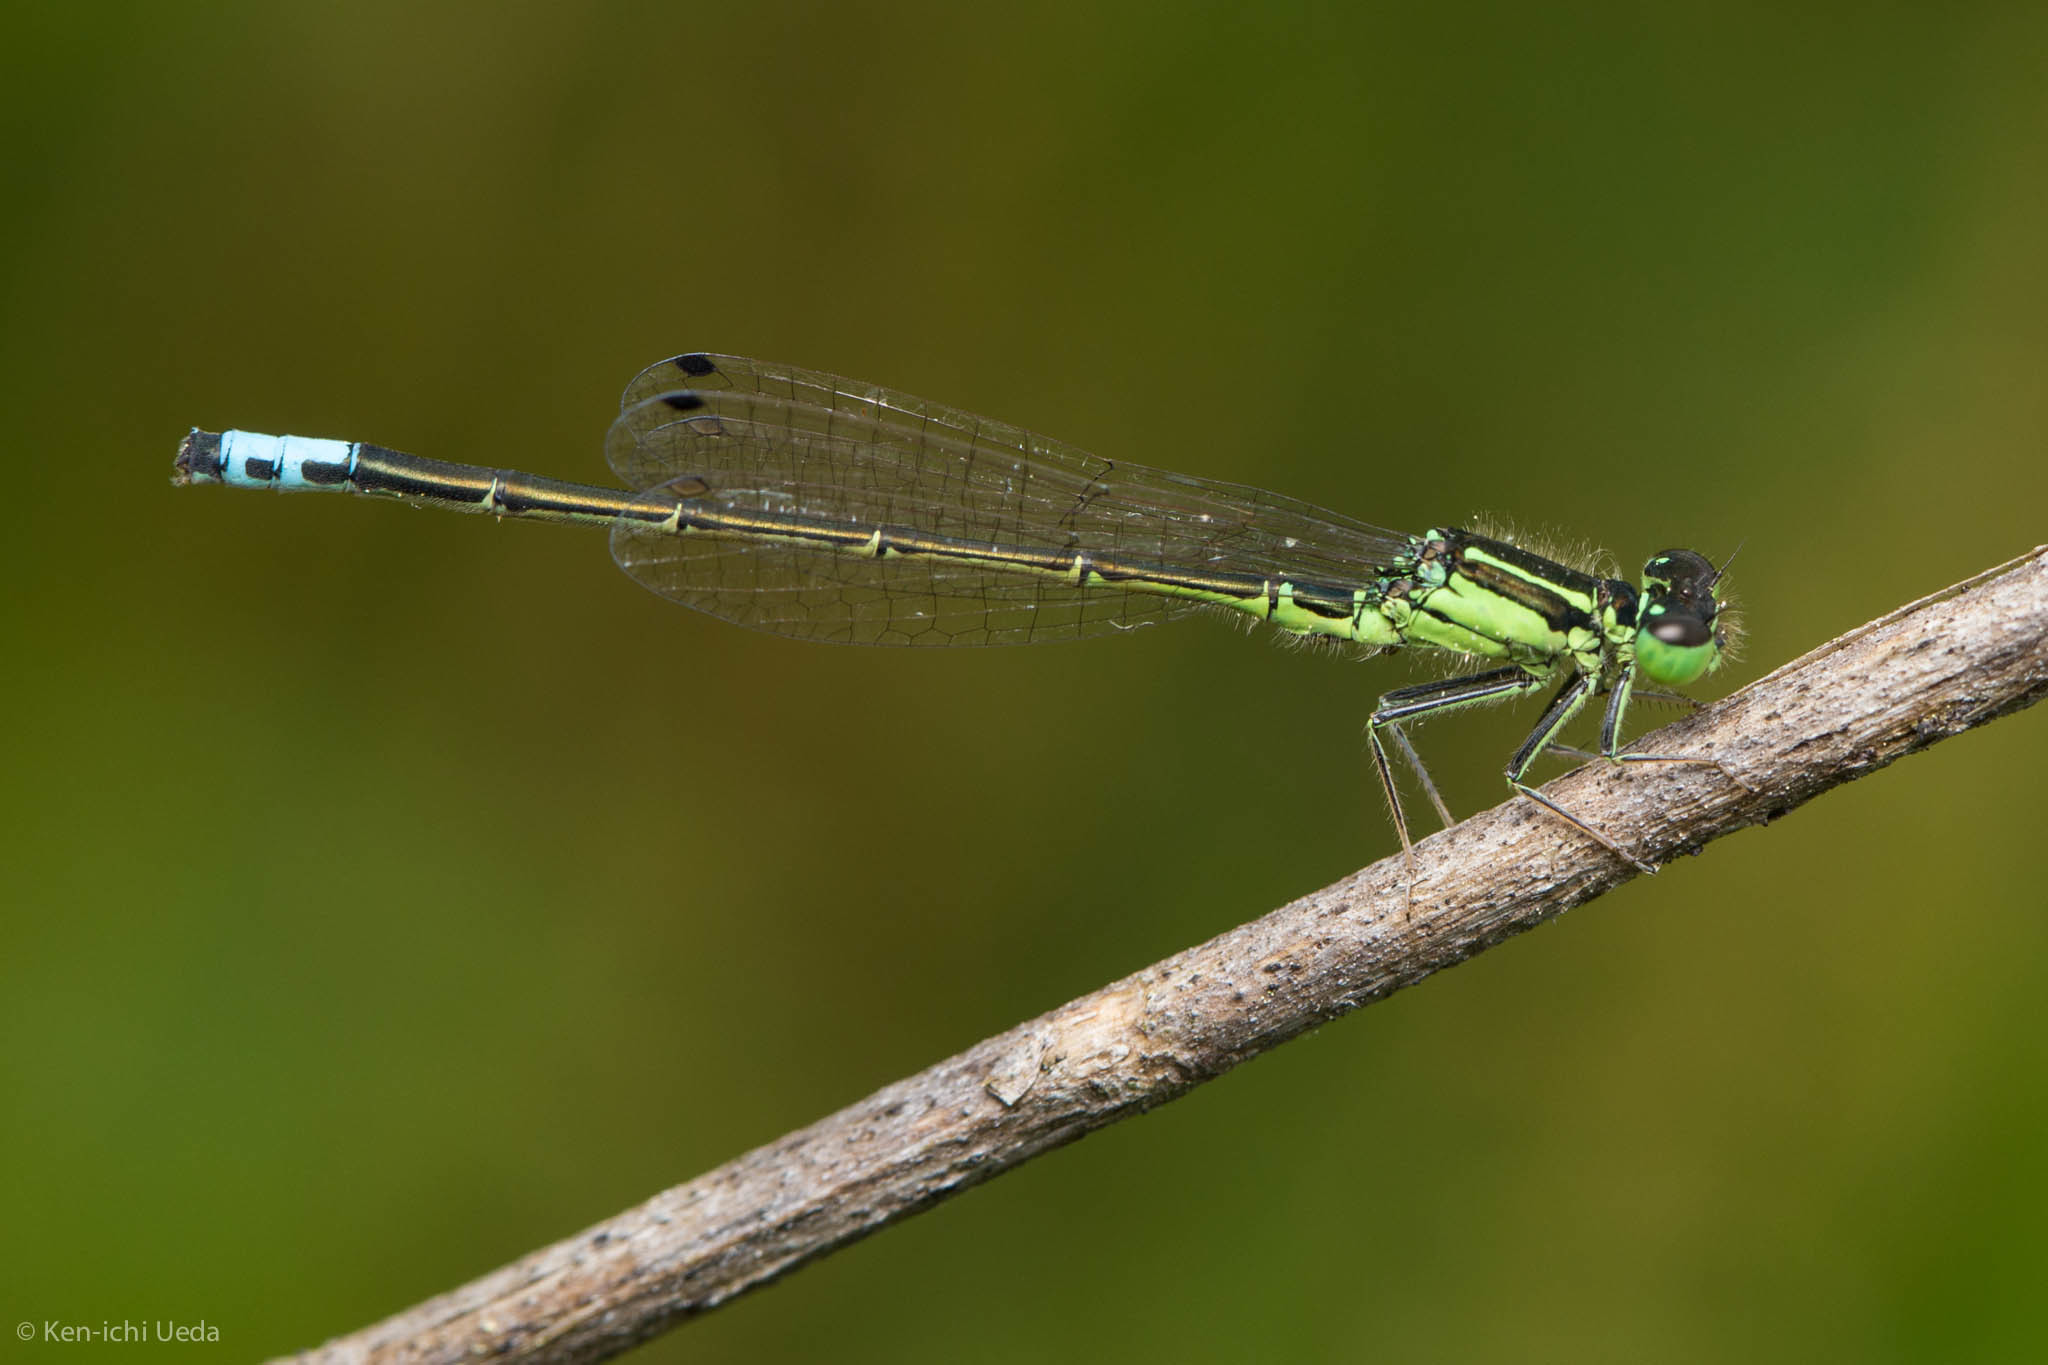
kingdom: Animalia
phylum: Arthropoda
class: Insecta
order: Odonata
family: Coenagrionidae
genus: Ischnura
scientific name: Ischnura verticalis
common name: Eastern forktail
